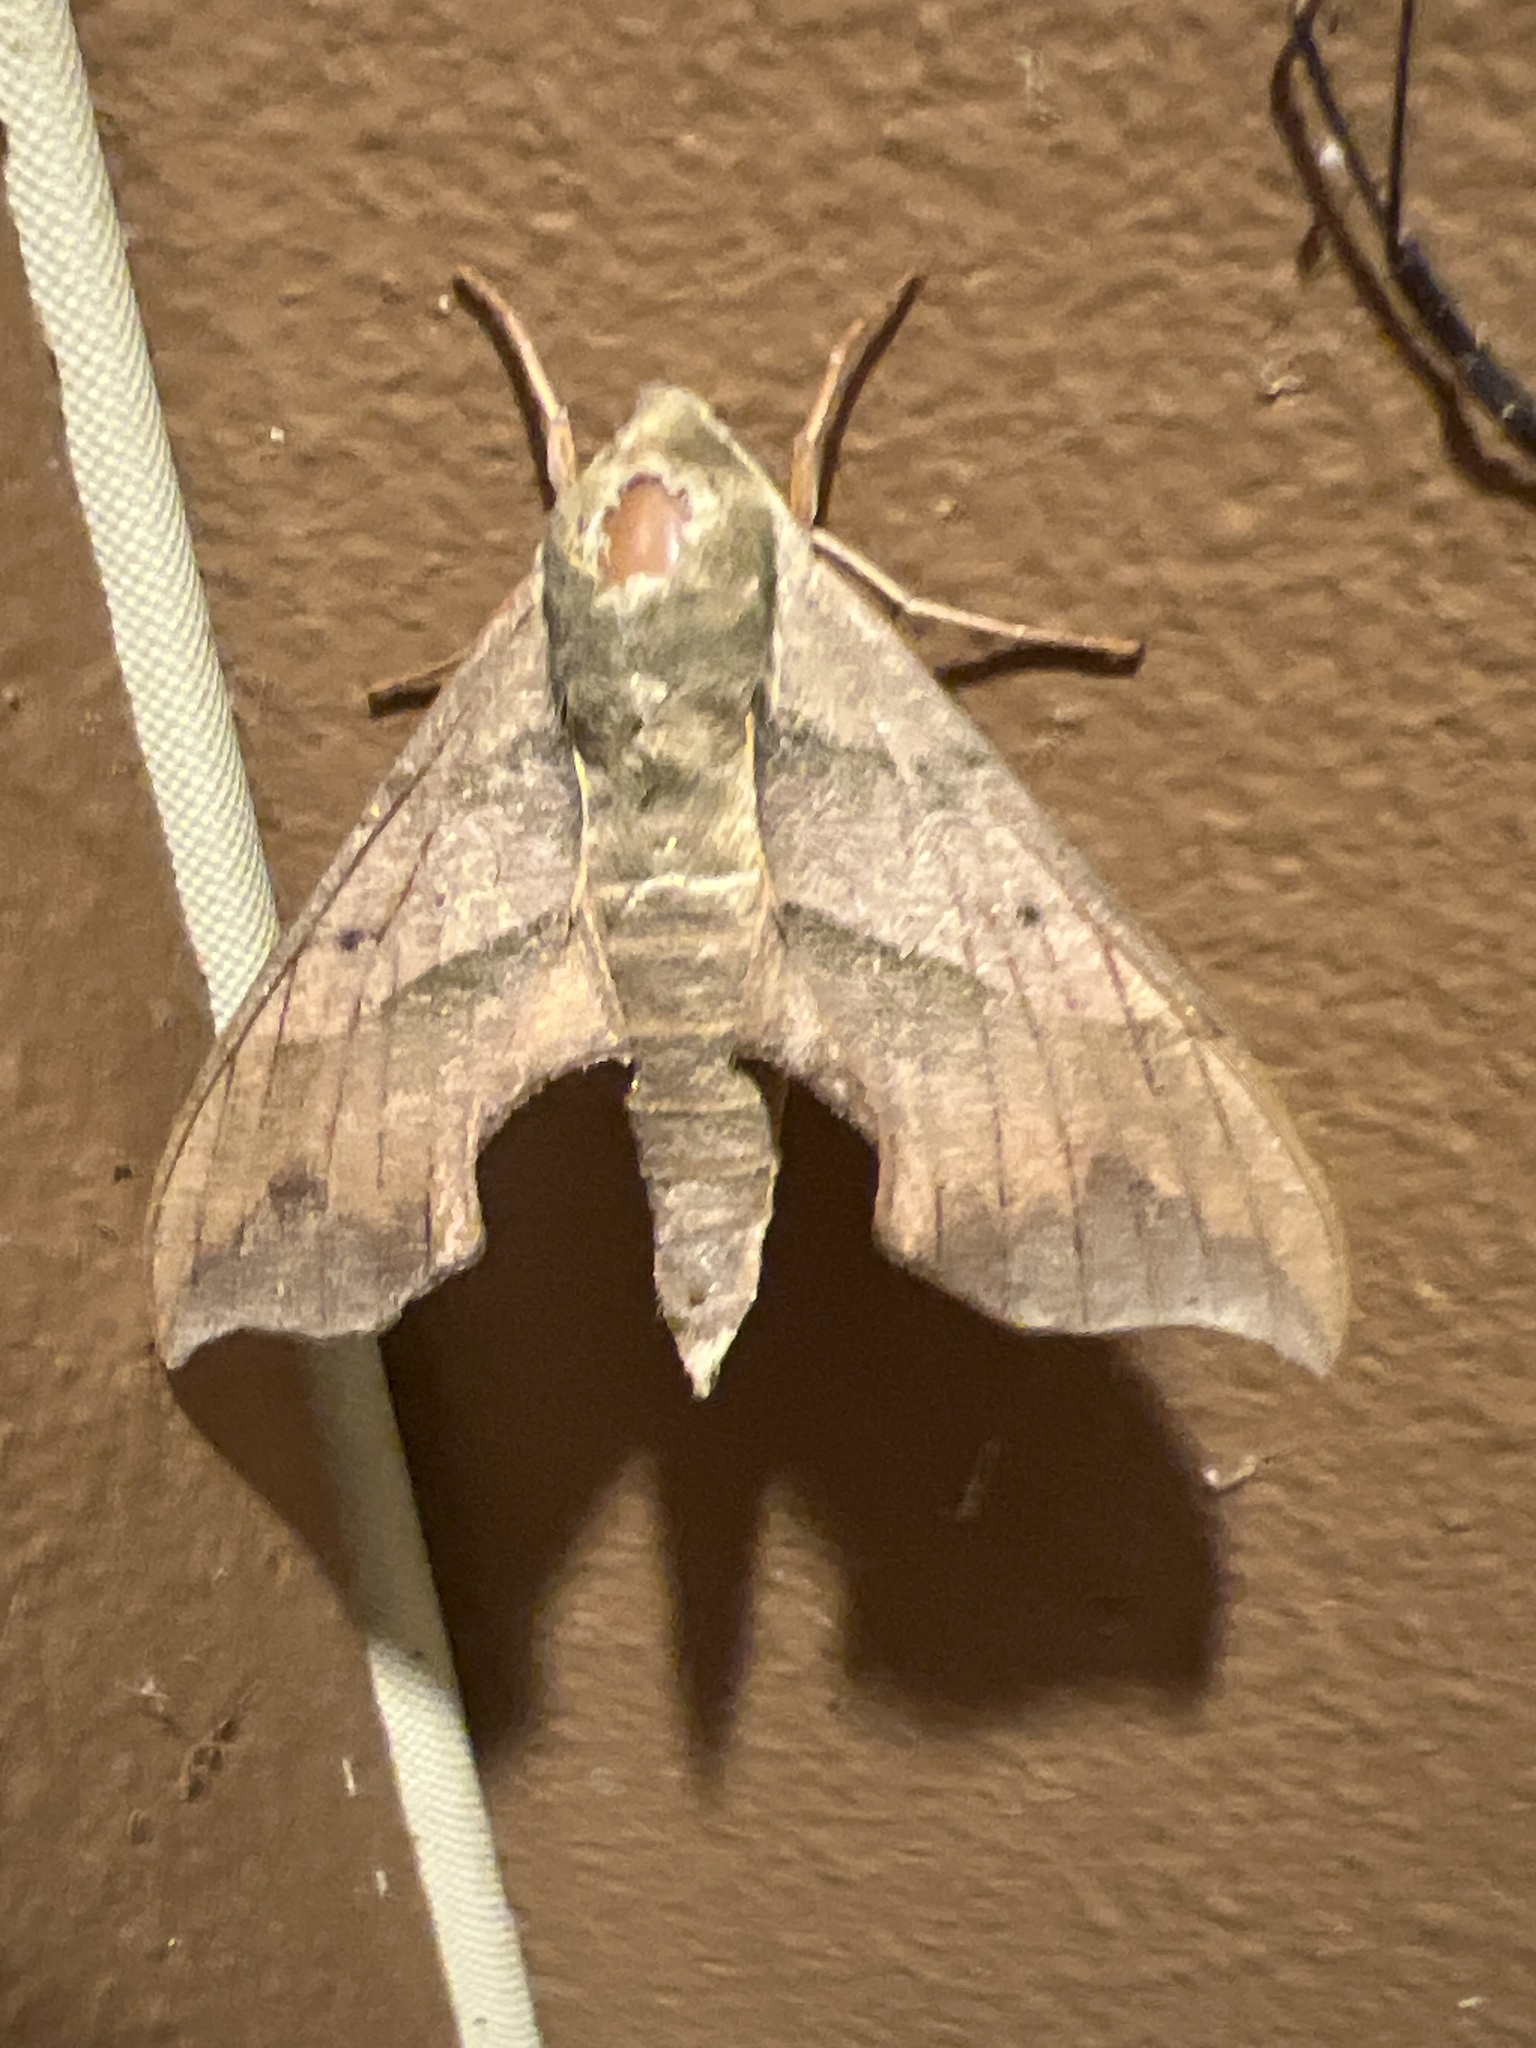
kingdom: Animalia
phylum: Arthropoda
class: Insecta
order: Lepidoptera
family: Sphingidae
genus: Darapsa
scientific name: Darapsa myron
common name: Hog sphinx
